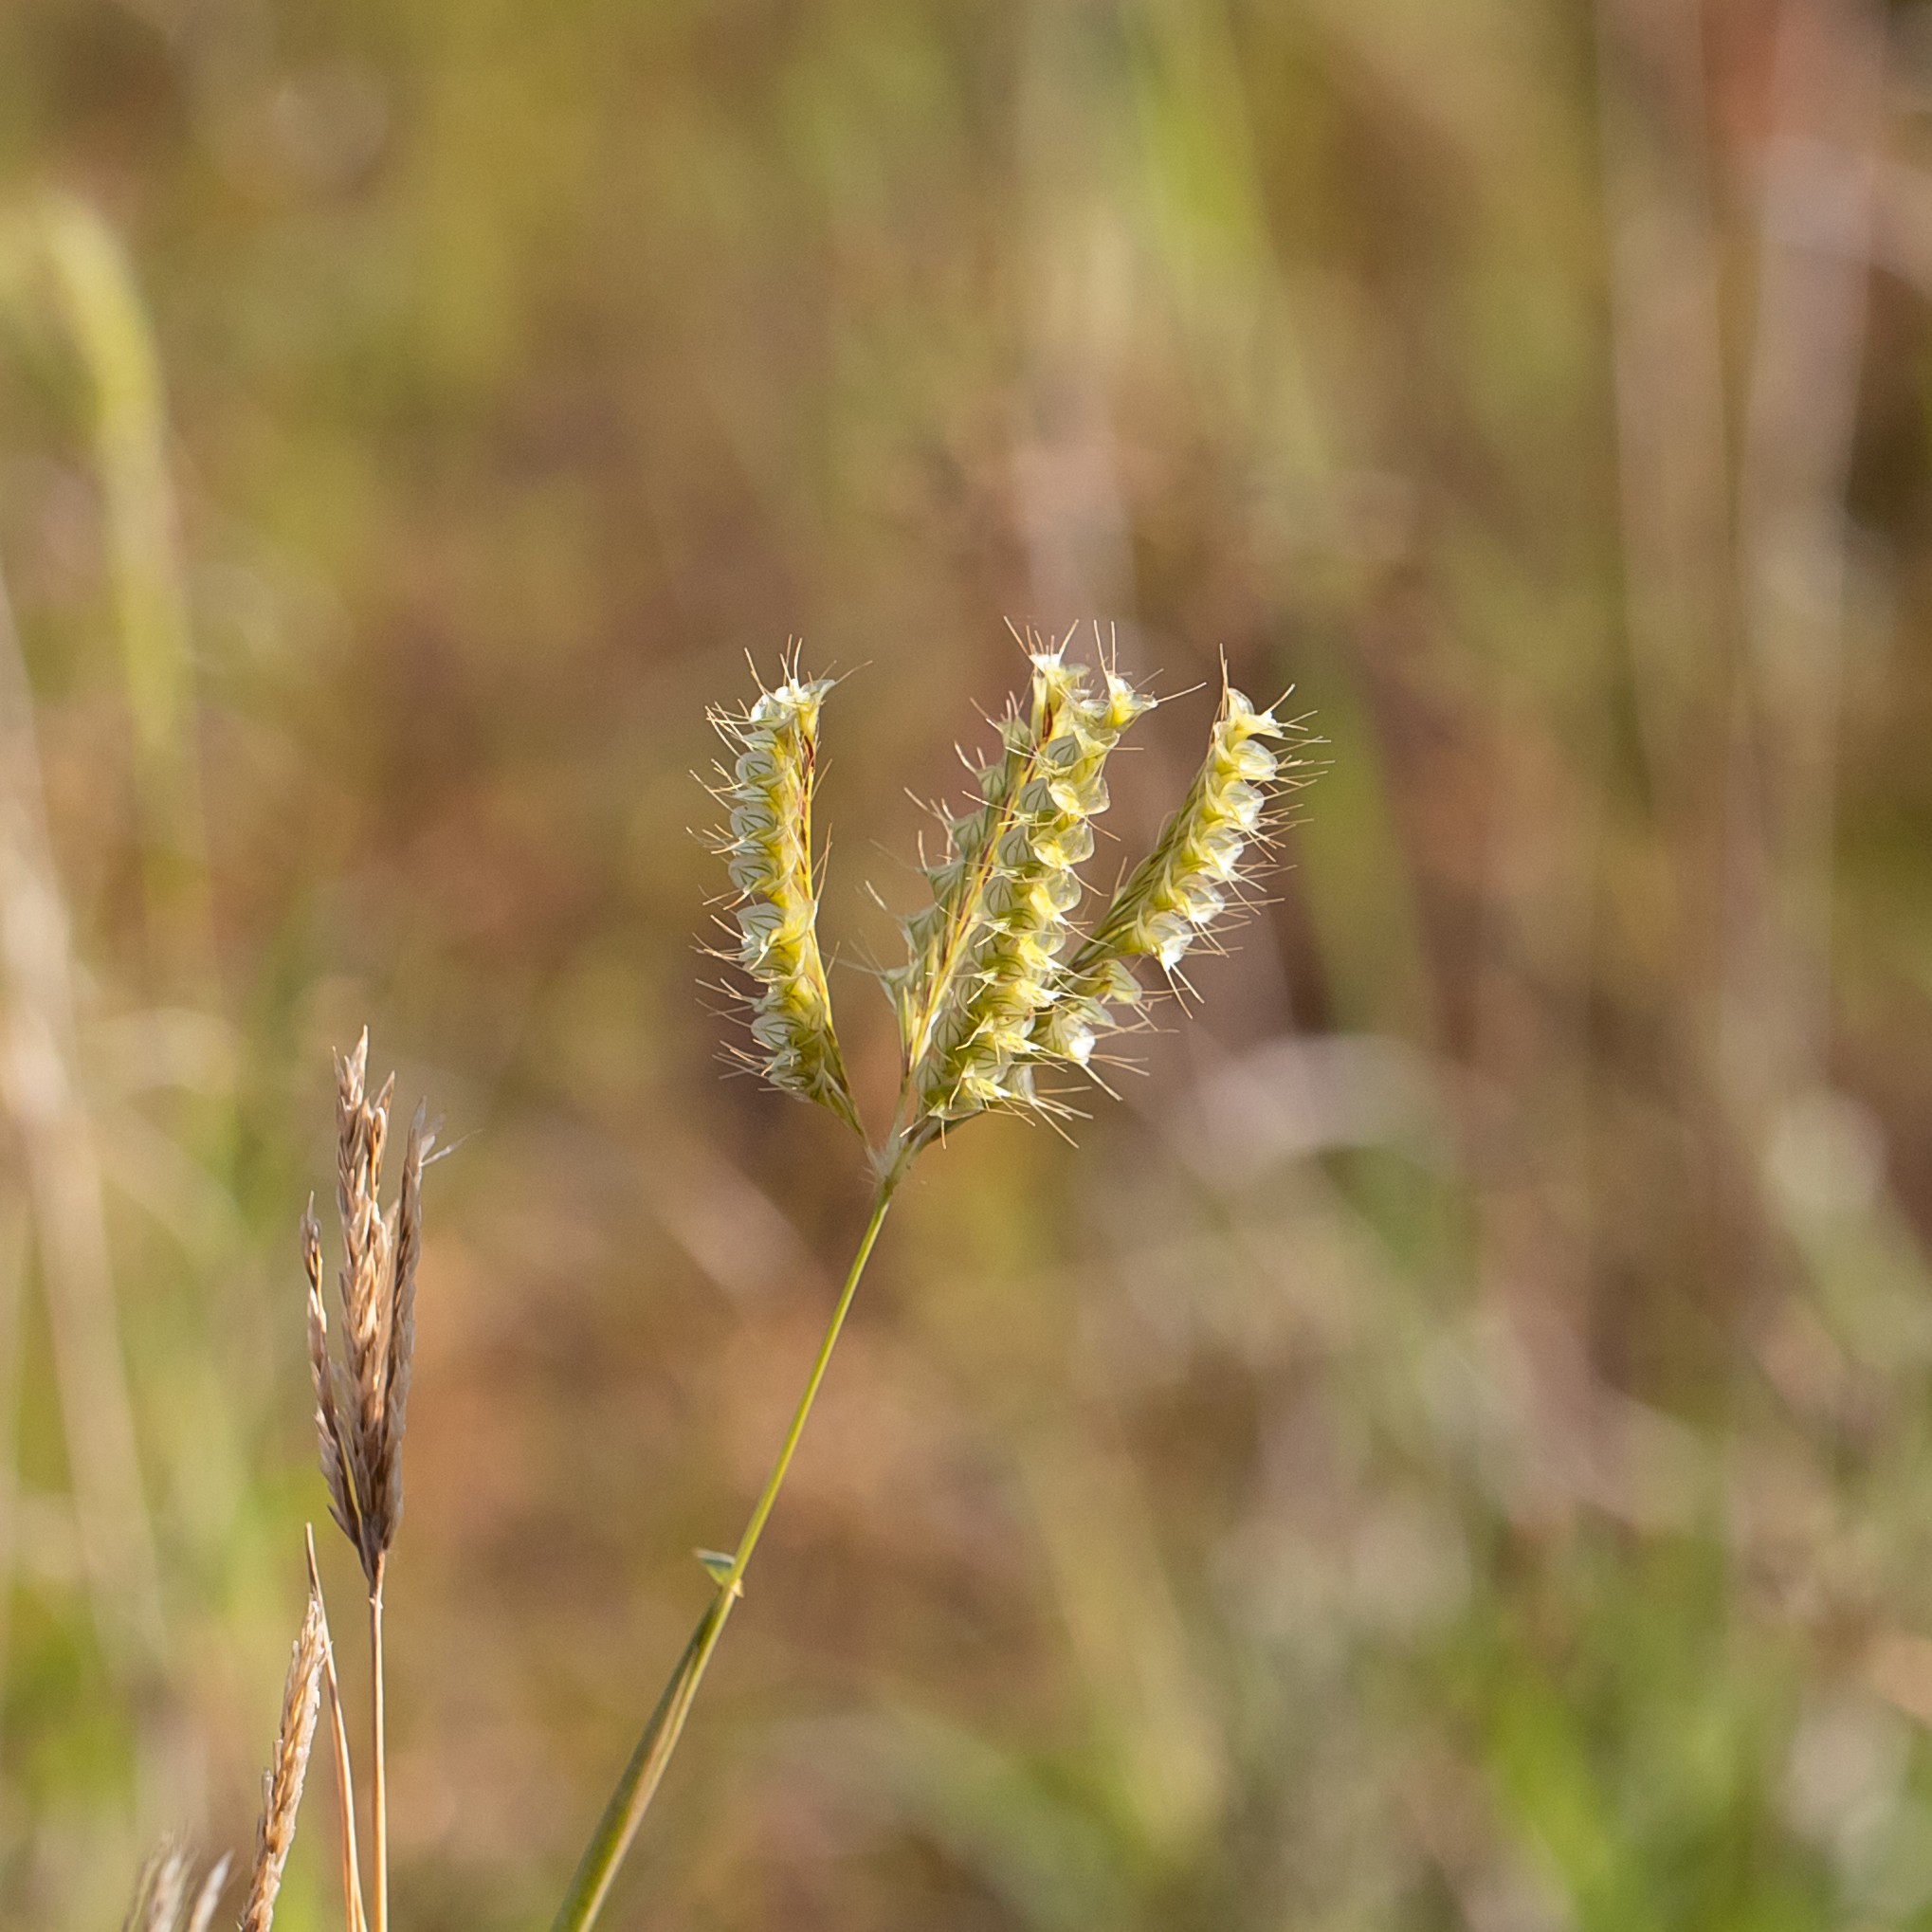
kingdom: Plantae
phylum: Tracheophyta
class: Liliopsida
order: Poales
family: Poaceae
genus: Oxychloris
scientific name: Oxychloris scariosa
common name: Winged windmill grass
